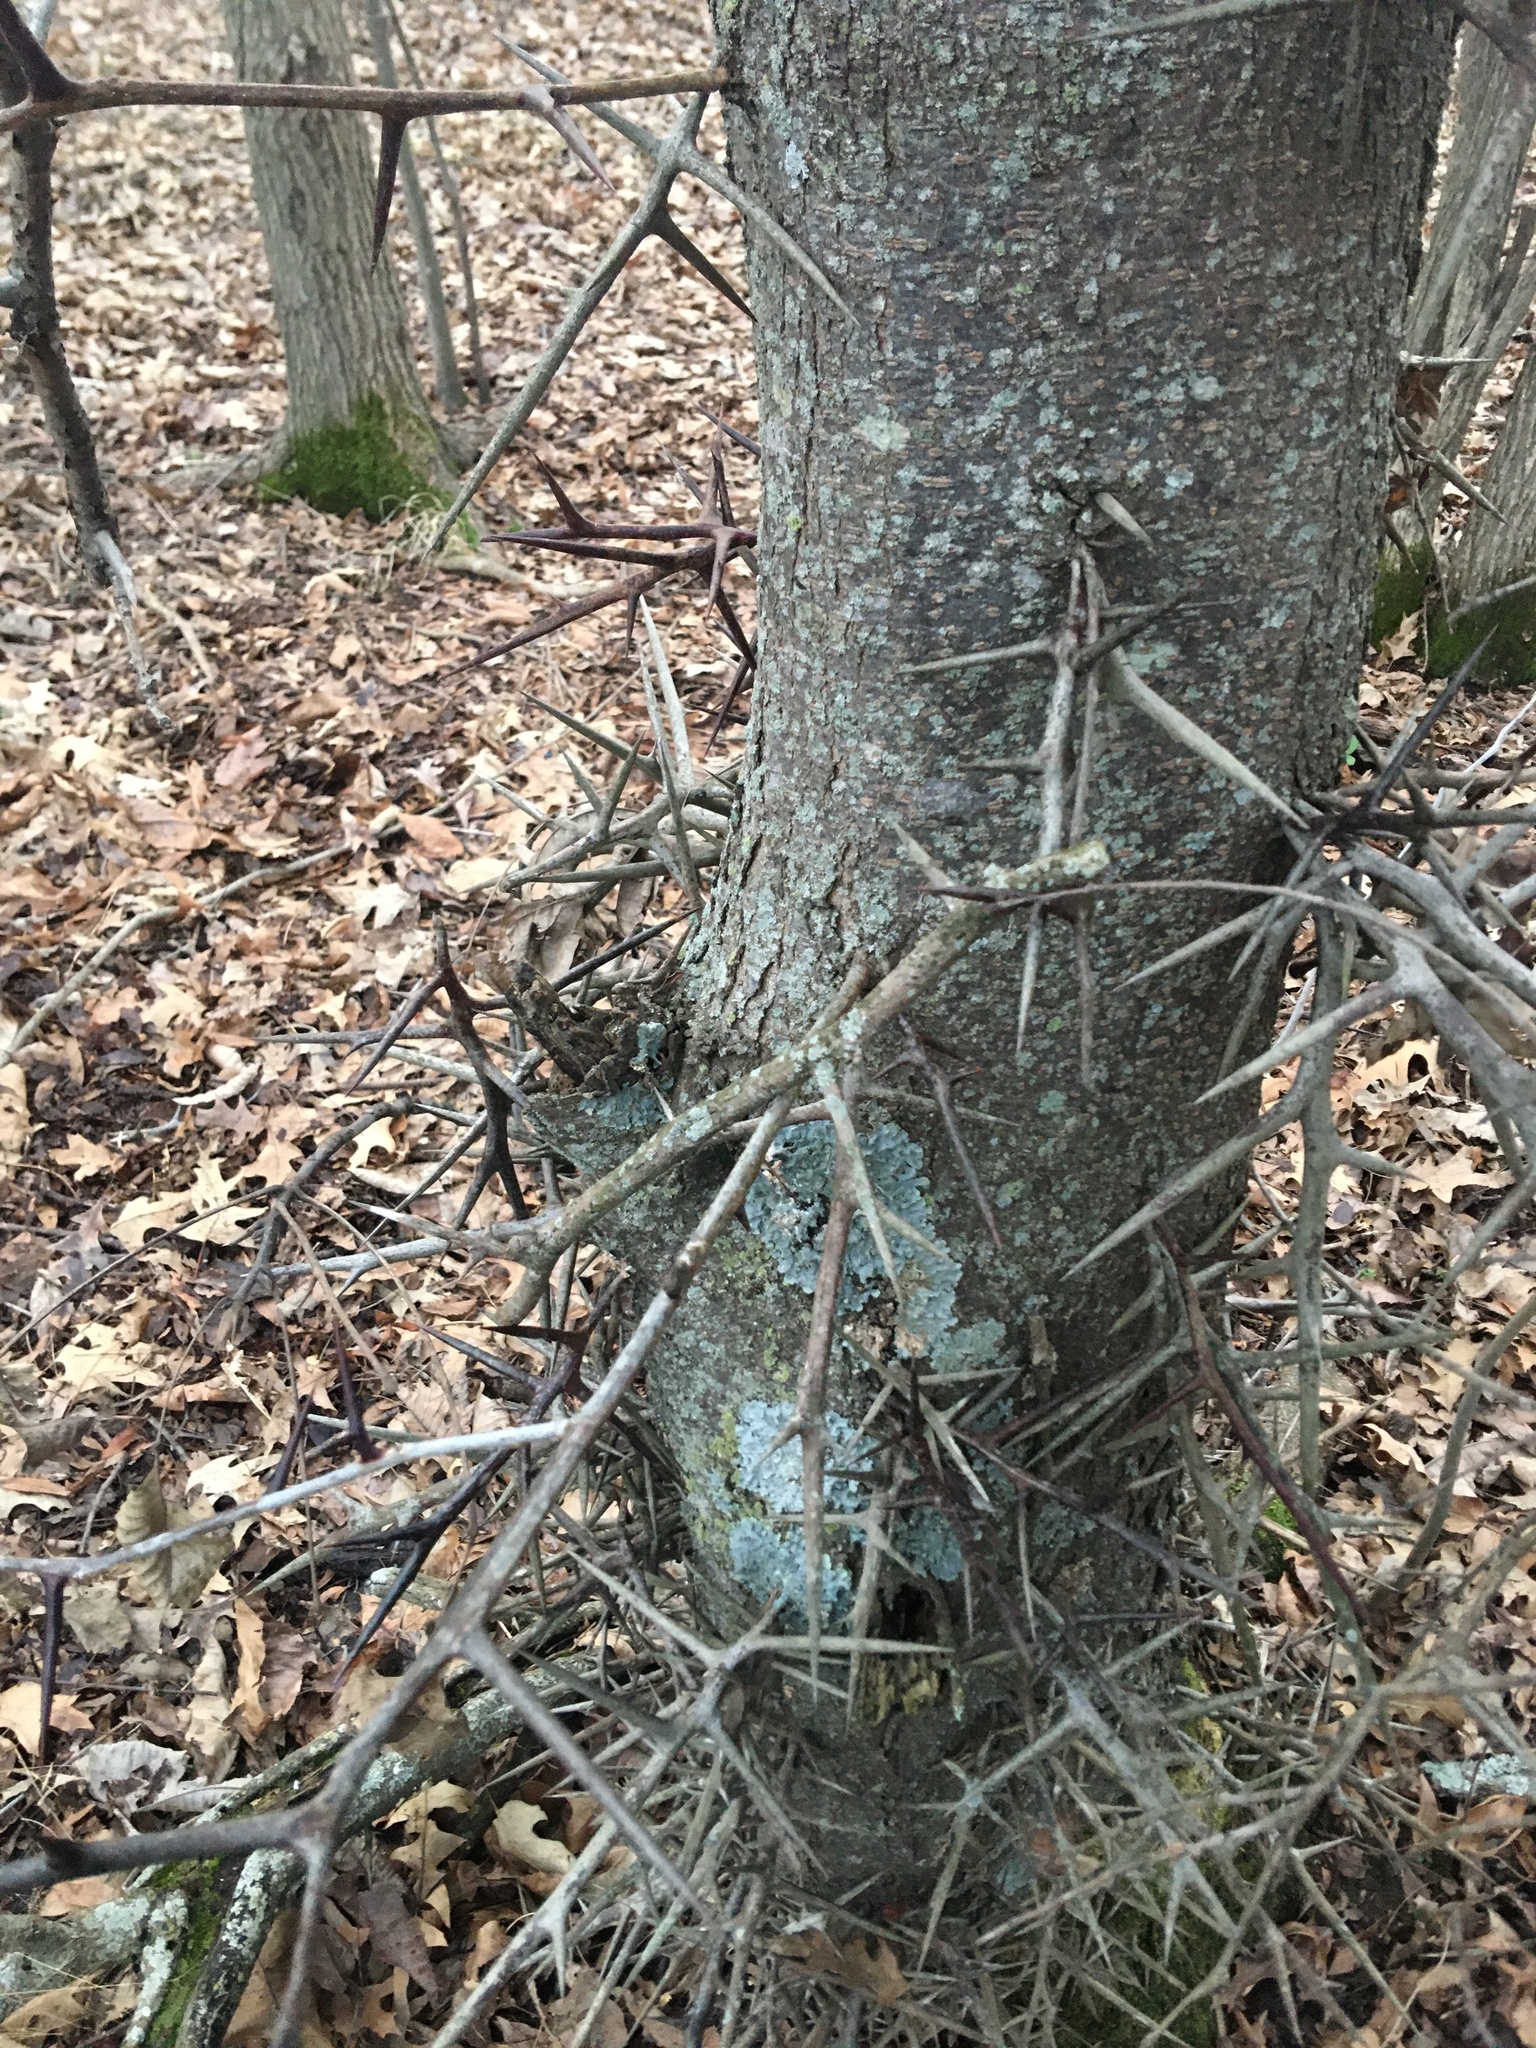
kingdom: Plantae
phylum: Tracheophyta
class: Magnoliopsida
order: Fabales
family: Fabaceae
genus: Gleditsia
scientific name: Gleditsia triacanthos
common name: Common honeylocust
